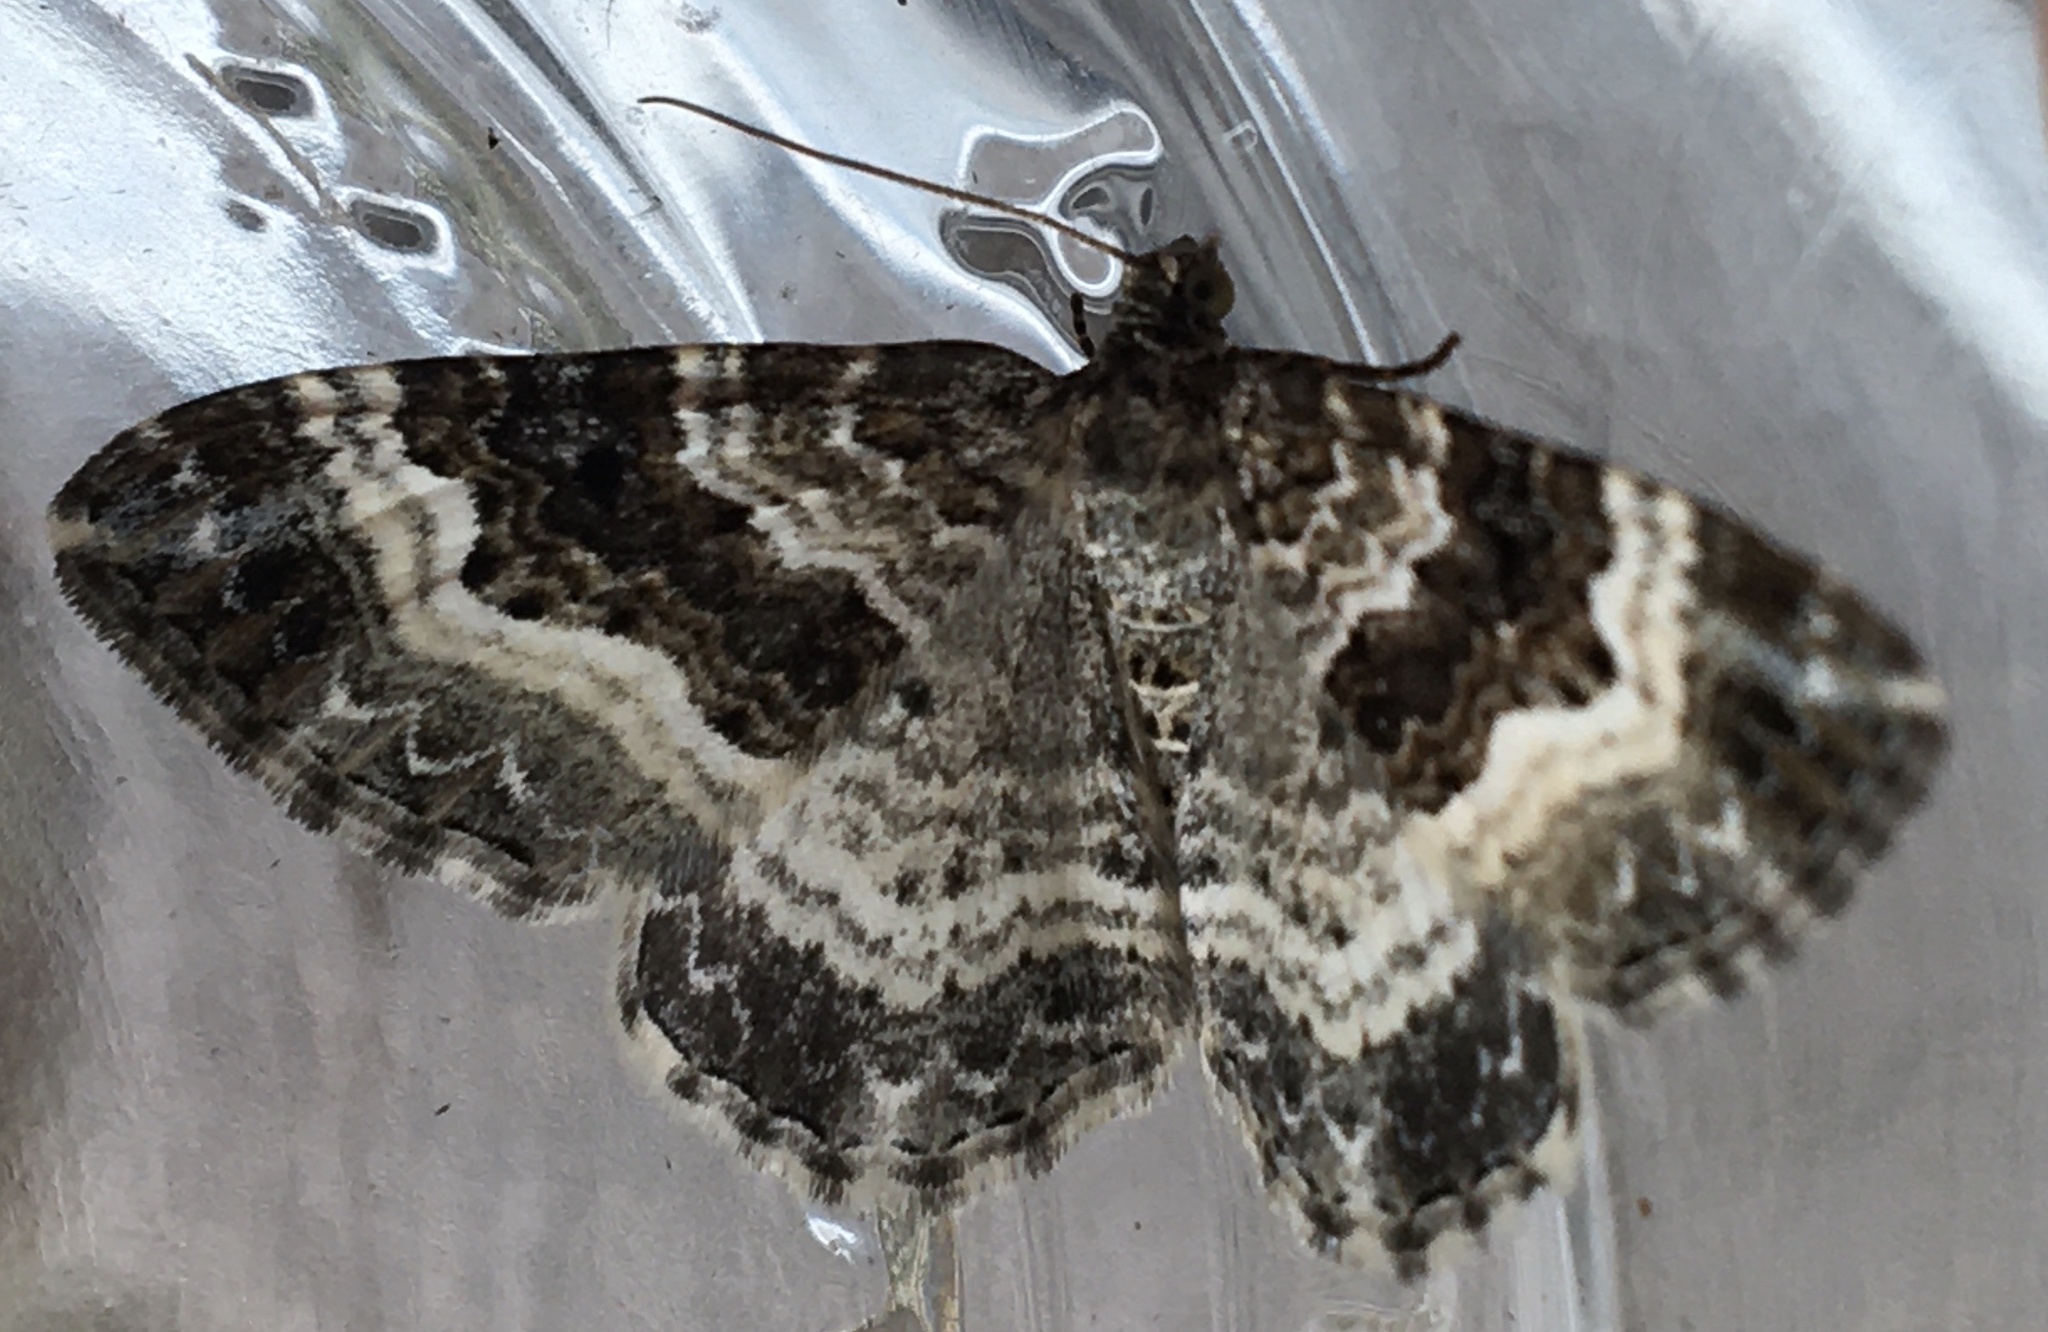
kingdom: Animalia
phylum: Arthropoda
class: Insecta
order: Lepidoptera
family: Geometridae
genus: Epirrhoe
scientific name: Epirrhoe alternata
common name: Common carpet
